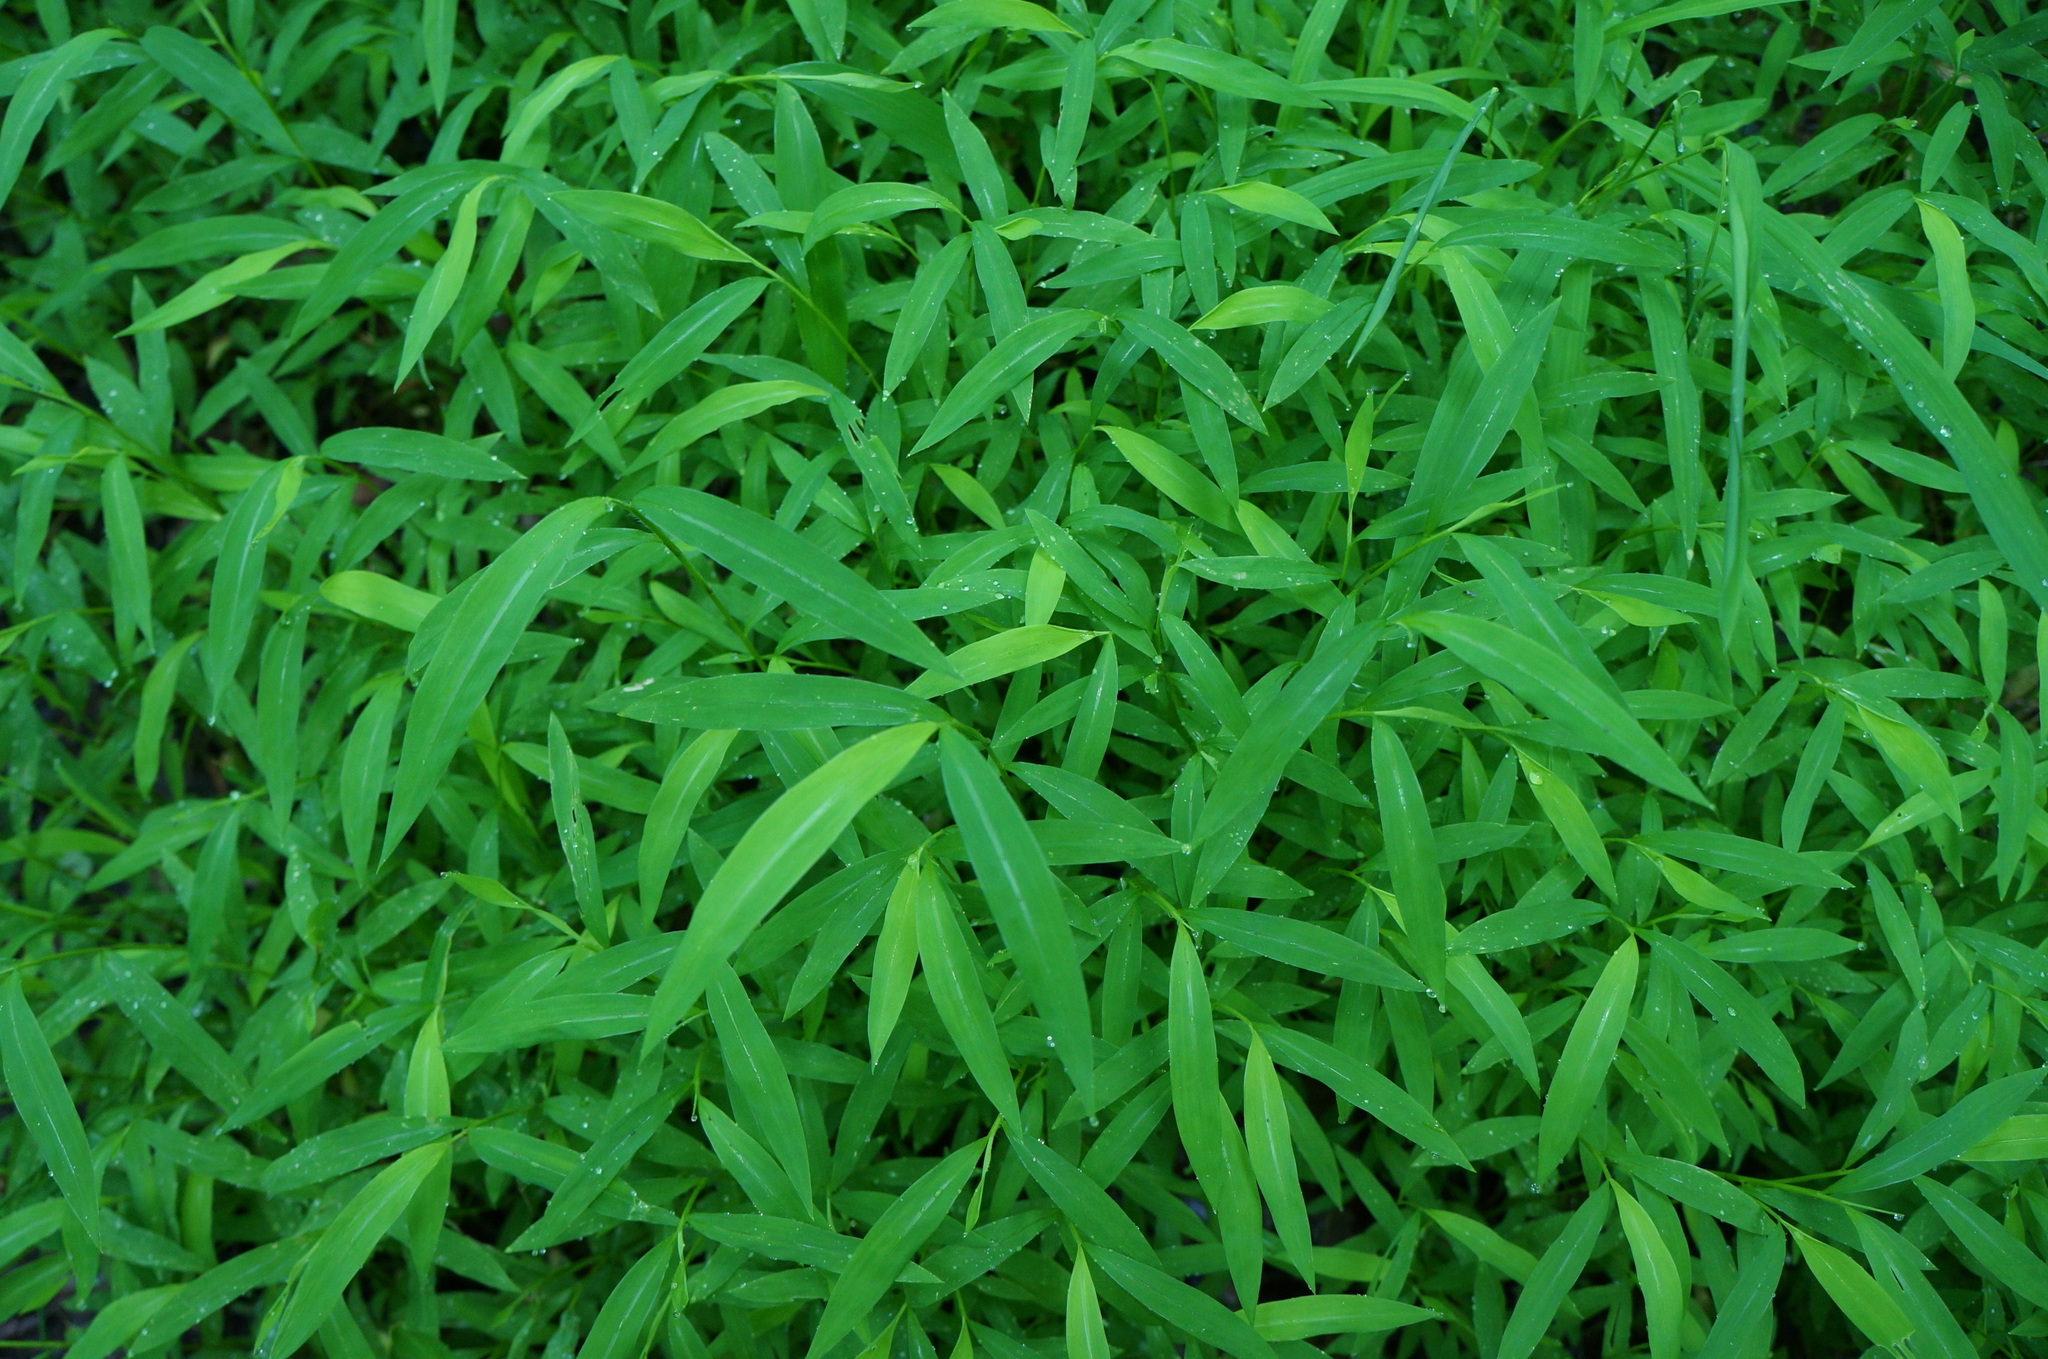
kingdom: Plantae
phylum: Tracheophyta
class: Liliopsida
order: Poales
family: Poaceae
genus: Microstegium
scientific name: Microstegium vimineum
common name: Japanese stiltgrass
